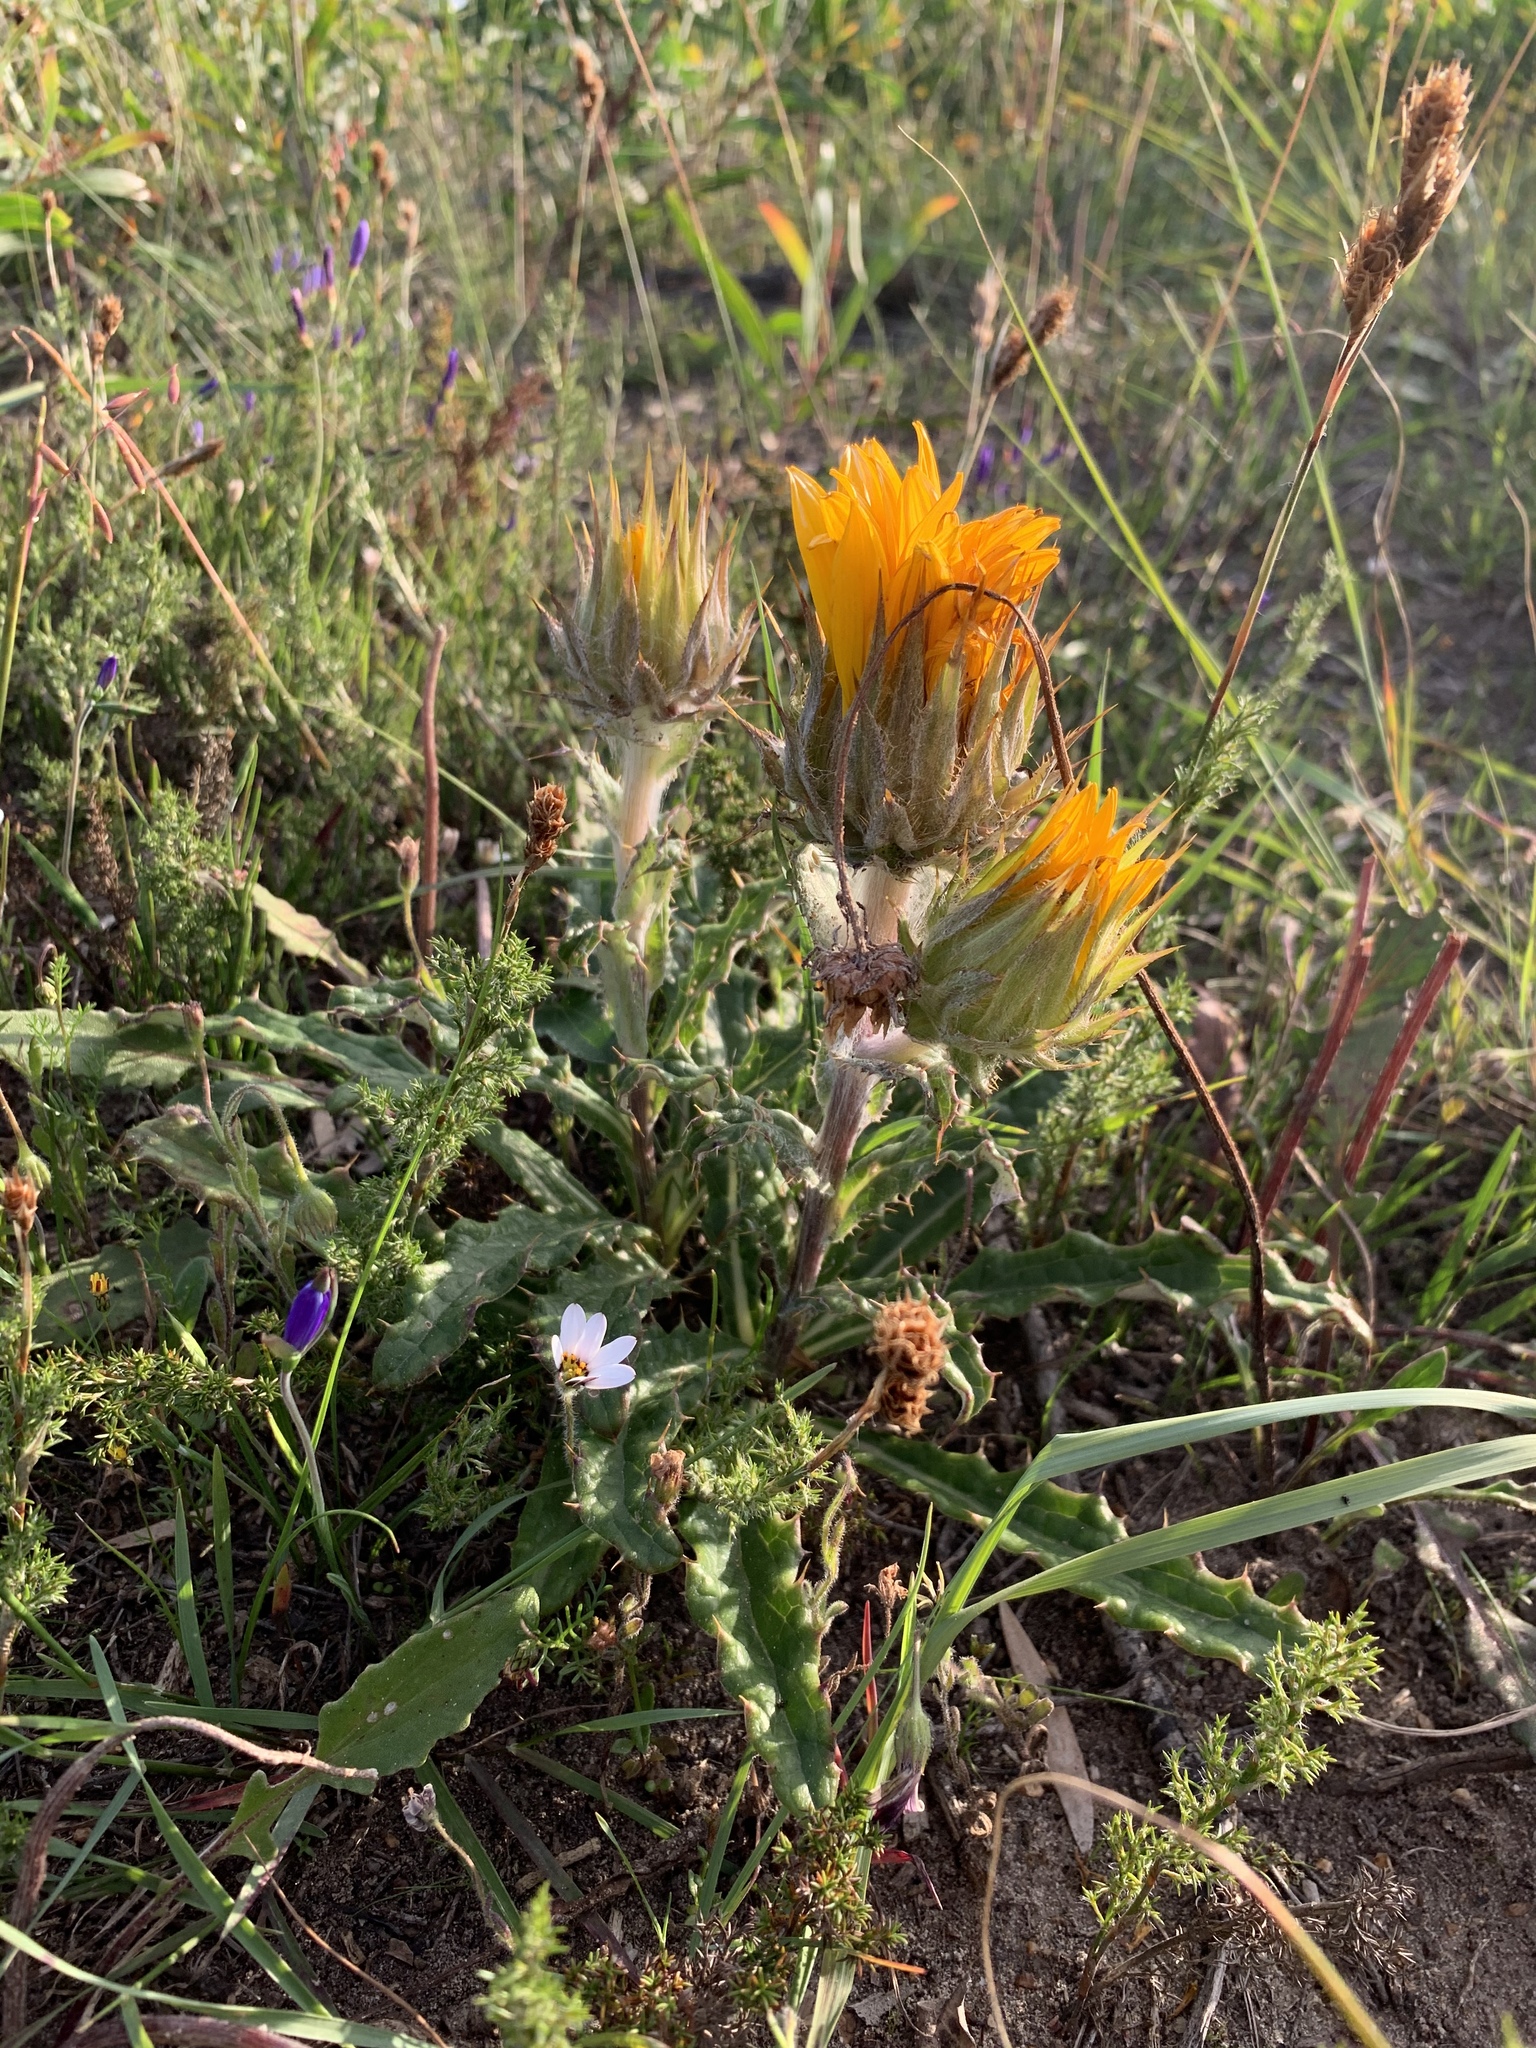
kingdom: Plantae
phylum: Tracheophyta
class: Magnoliopsida
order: Asterales
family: Asteraceae
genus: Berkheya
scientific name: Berkheya armata
